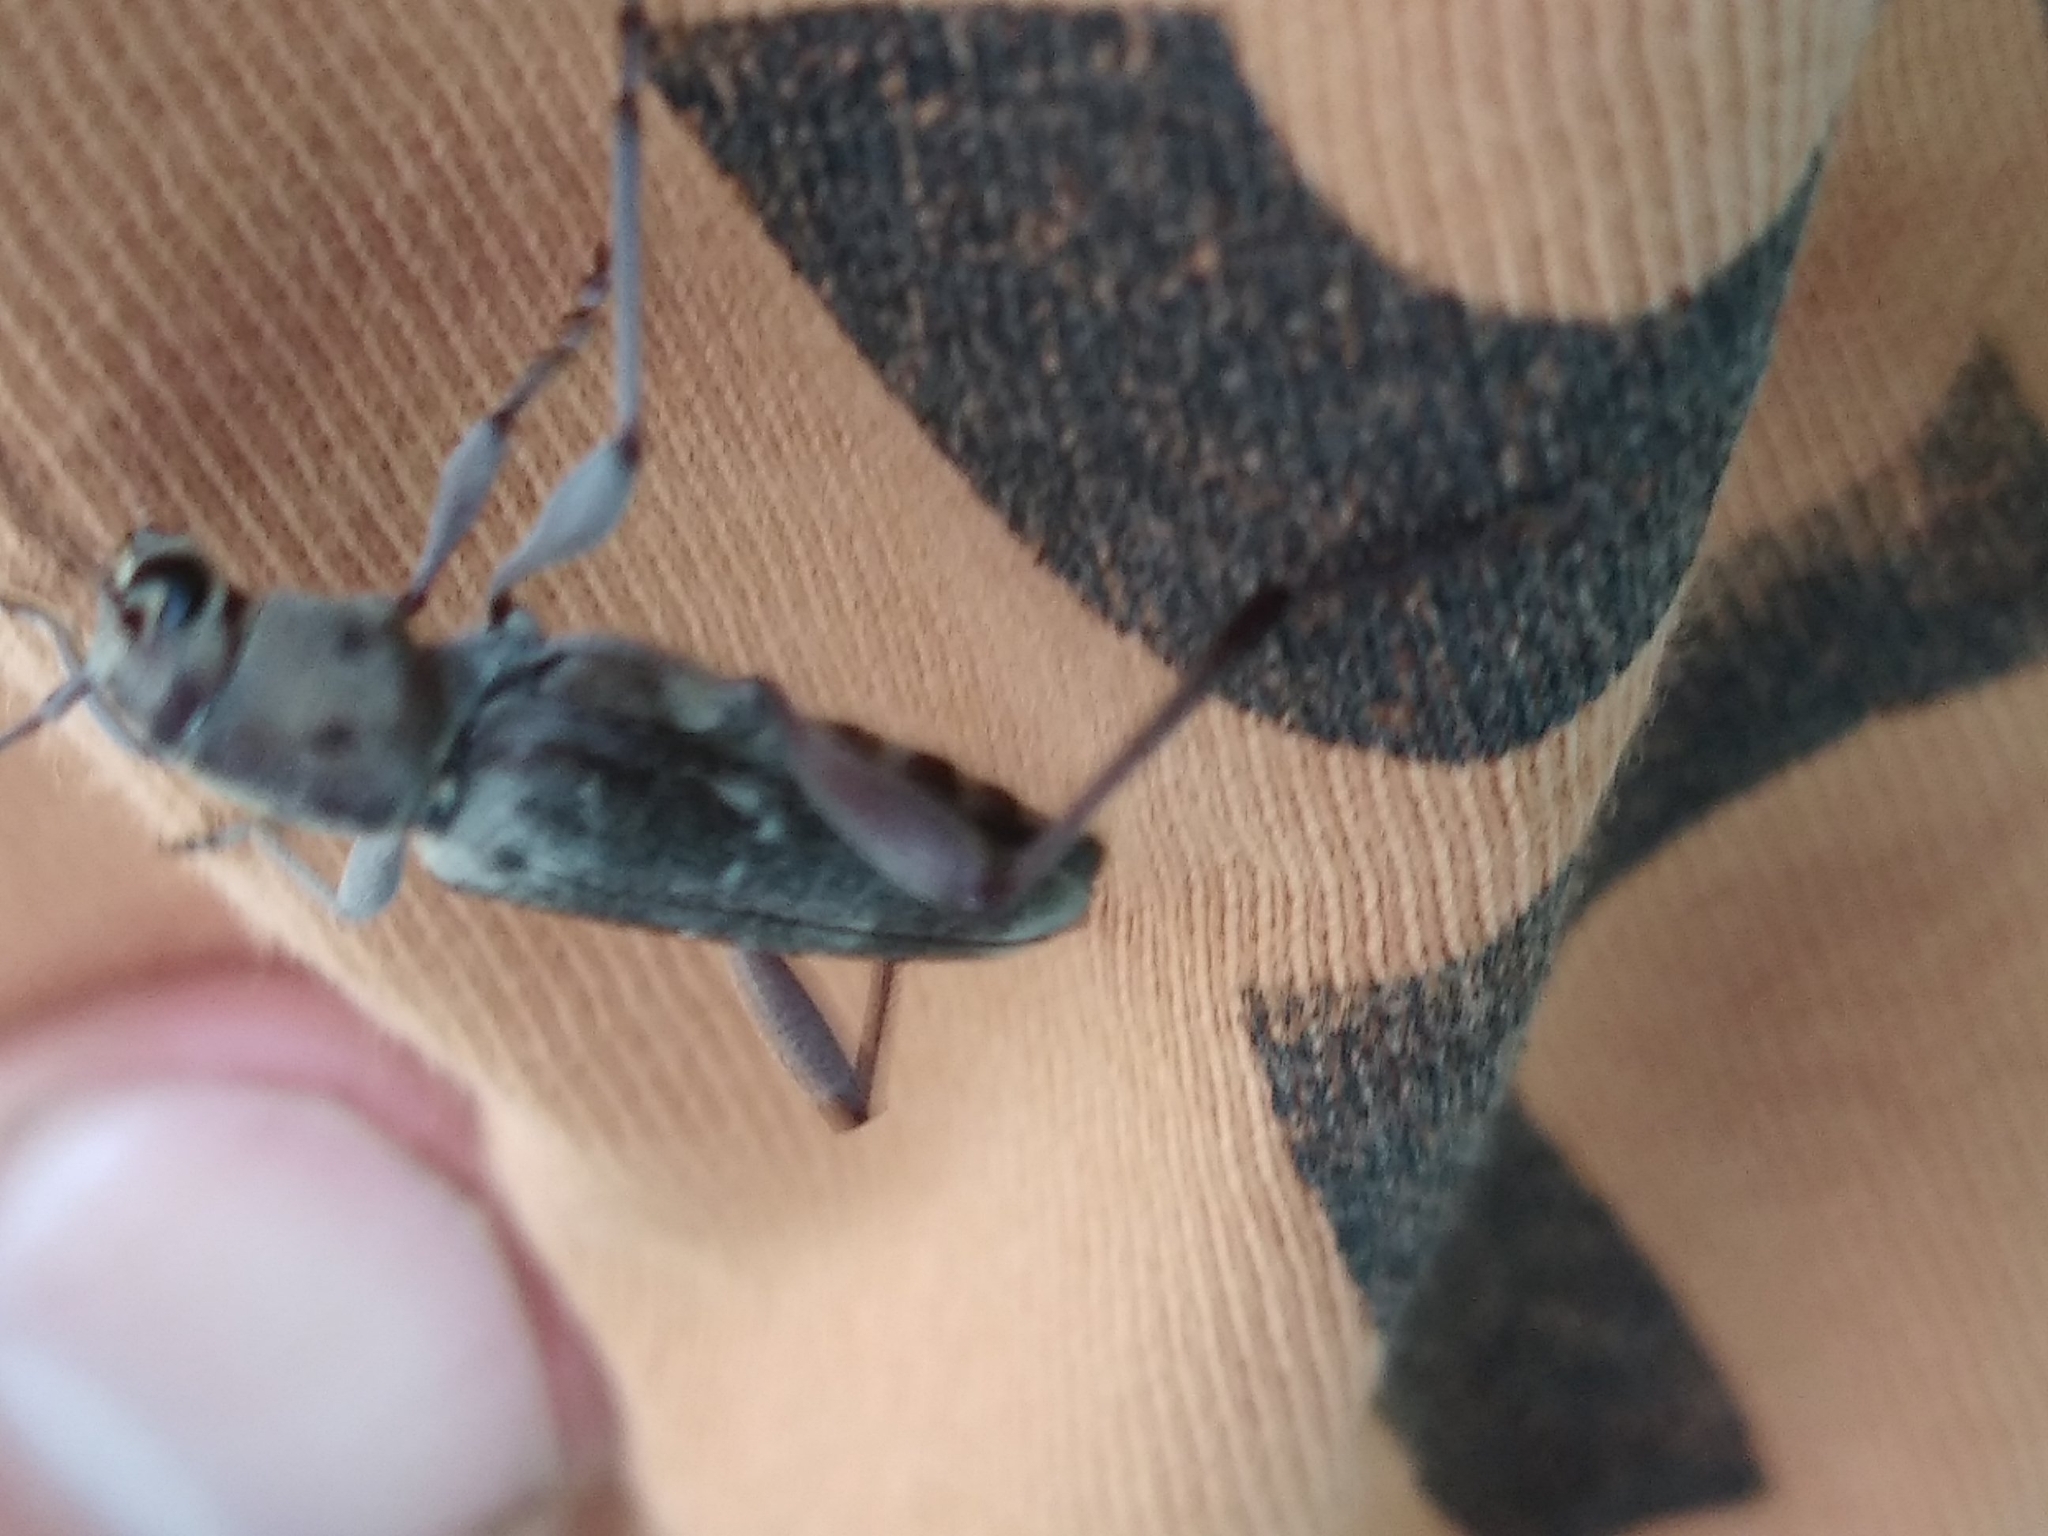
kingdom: Animalia
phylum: Arthropoda
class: Insecta
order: Coleoptera
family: Cerambycidae
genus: Xylotrechus
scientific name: Xylotrechus smei
